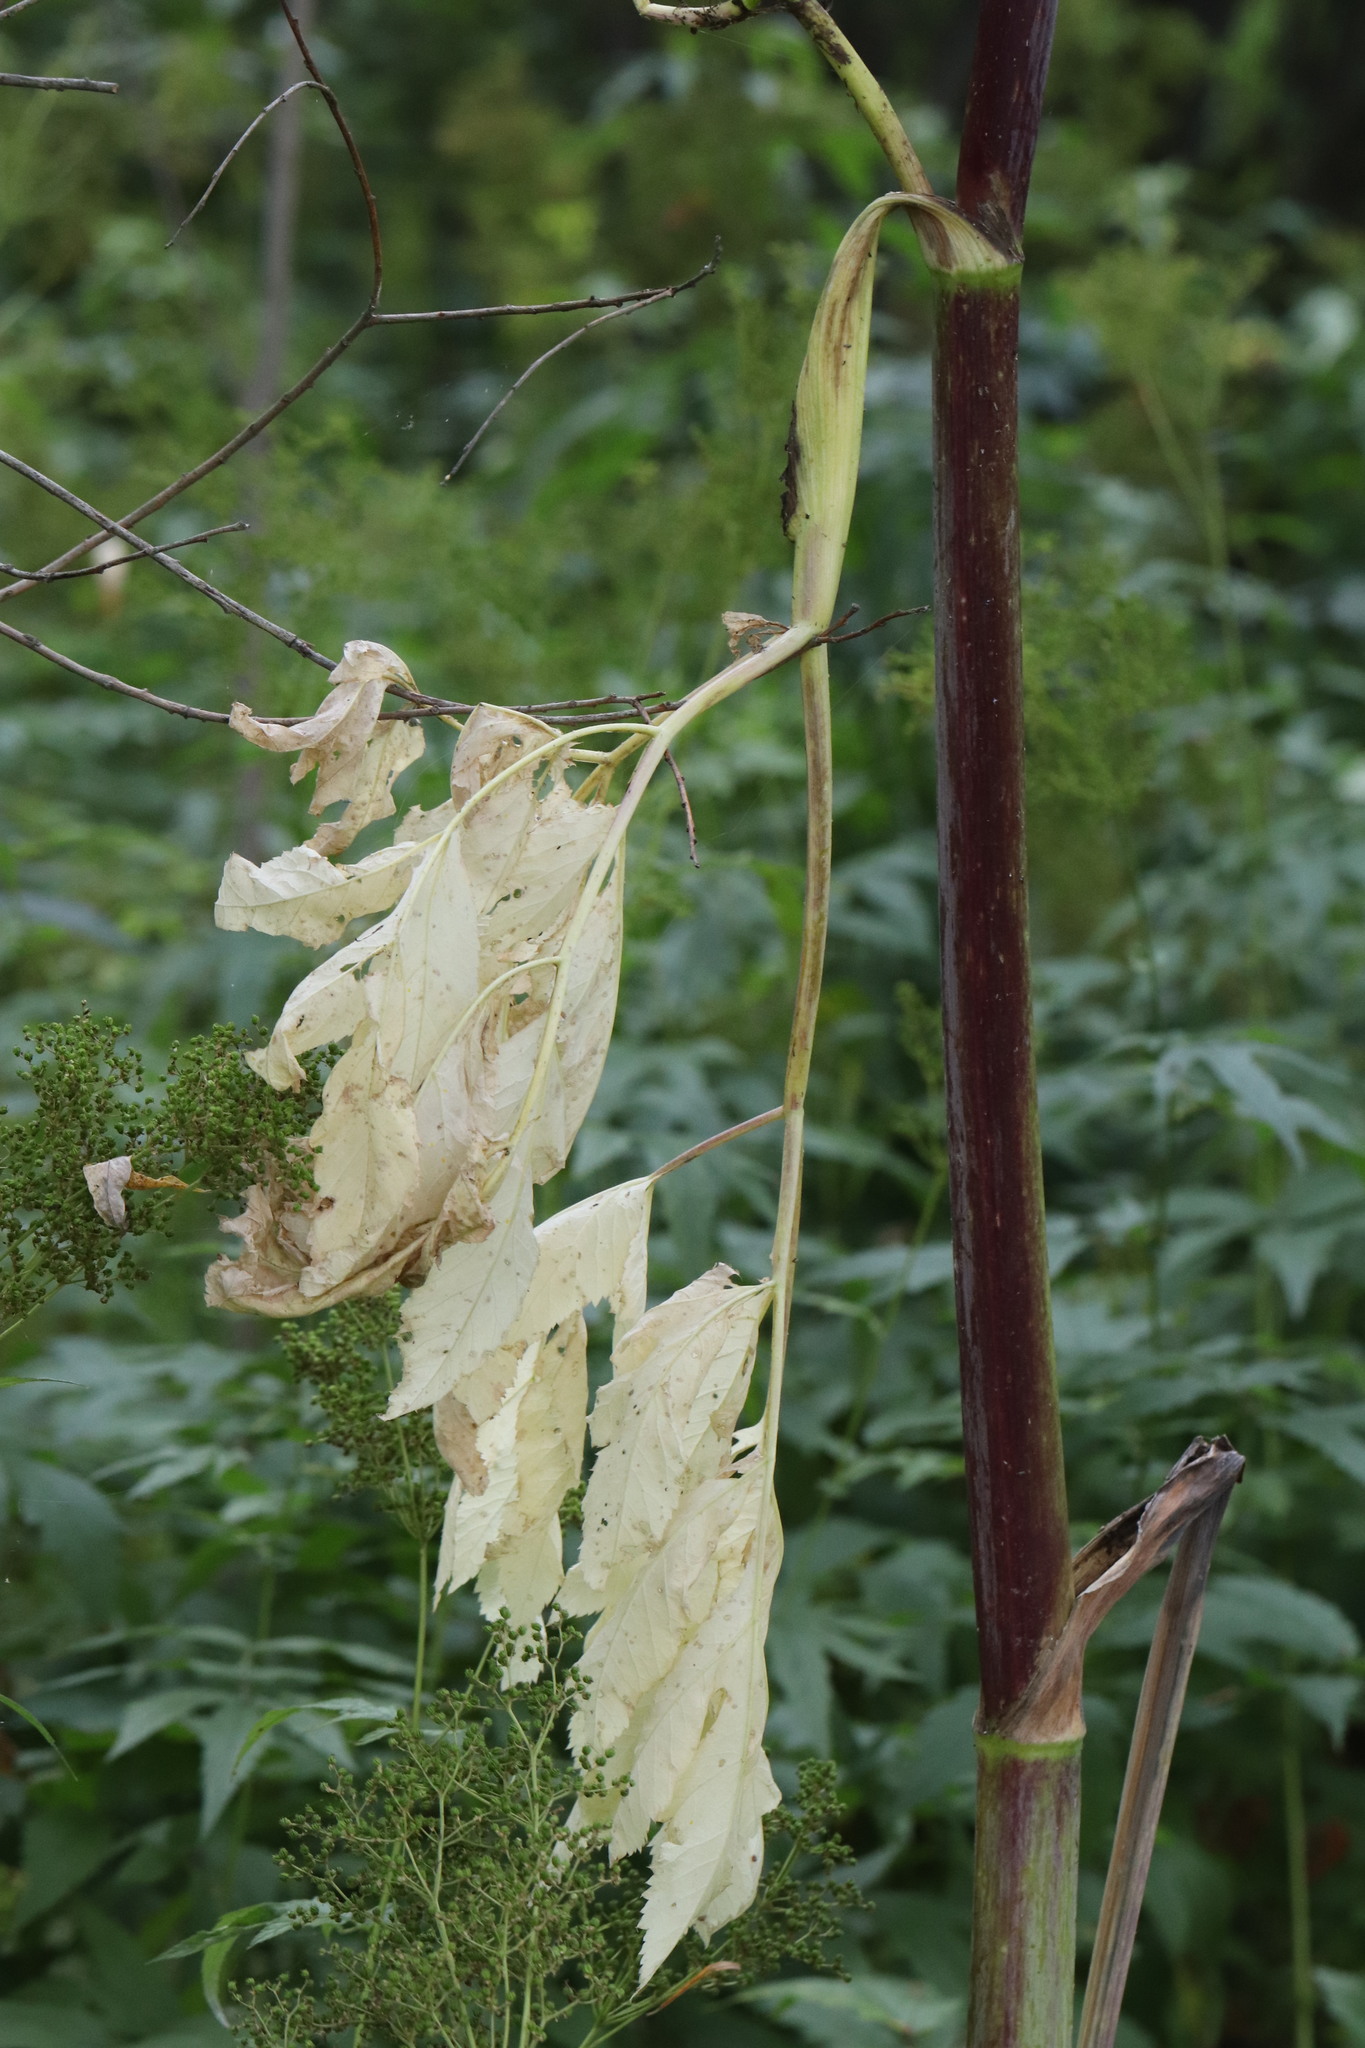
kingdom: Plantae
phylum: Tracheophyta
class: Magnoliopsida
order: Apiales
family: Apiaceae
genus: Angelica
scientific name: Angelica decurrens
